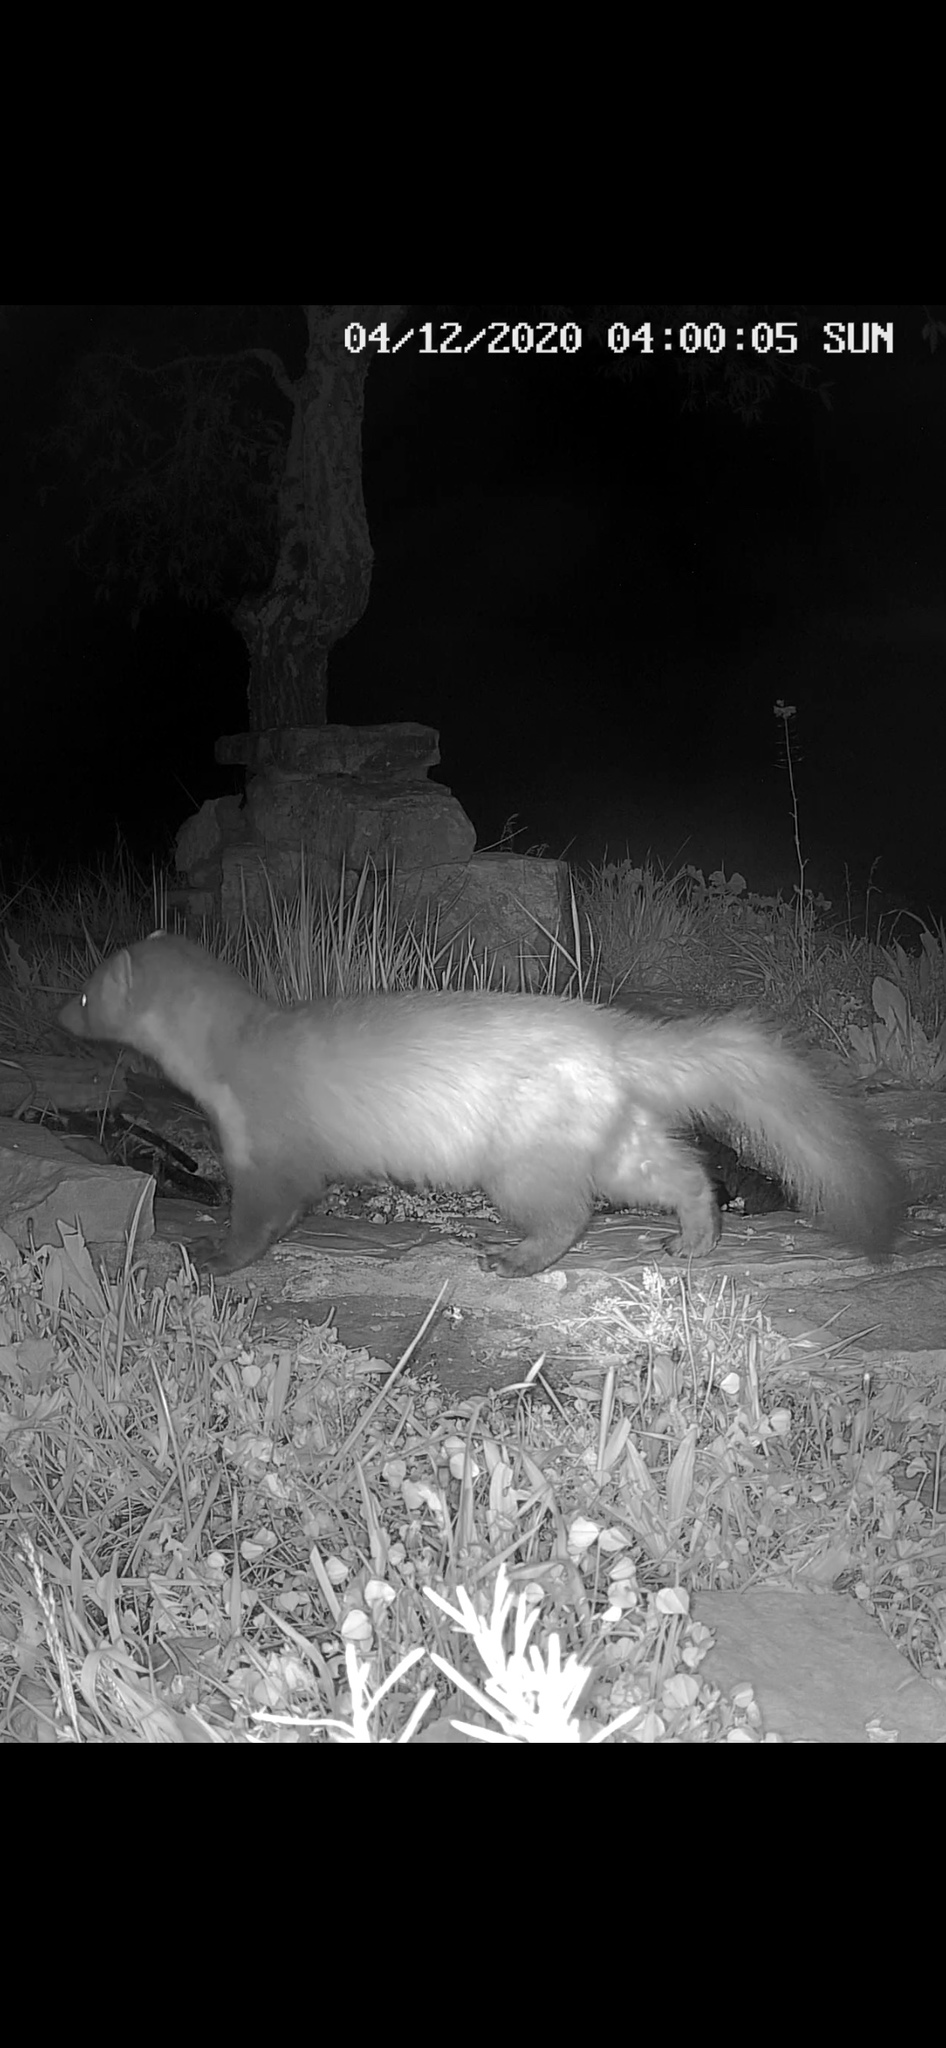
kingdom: Animalia
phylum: Chordata
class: Mammalia
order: Carnivora
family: Mustelidae
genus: Martes
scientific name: Martes foina
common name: Beech marten
